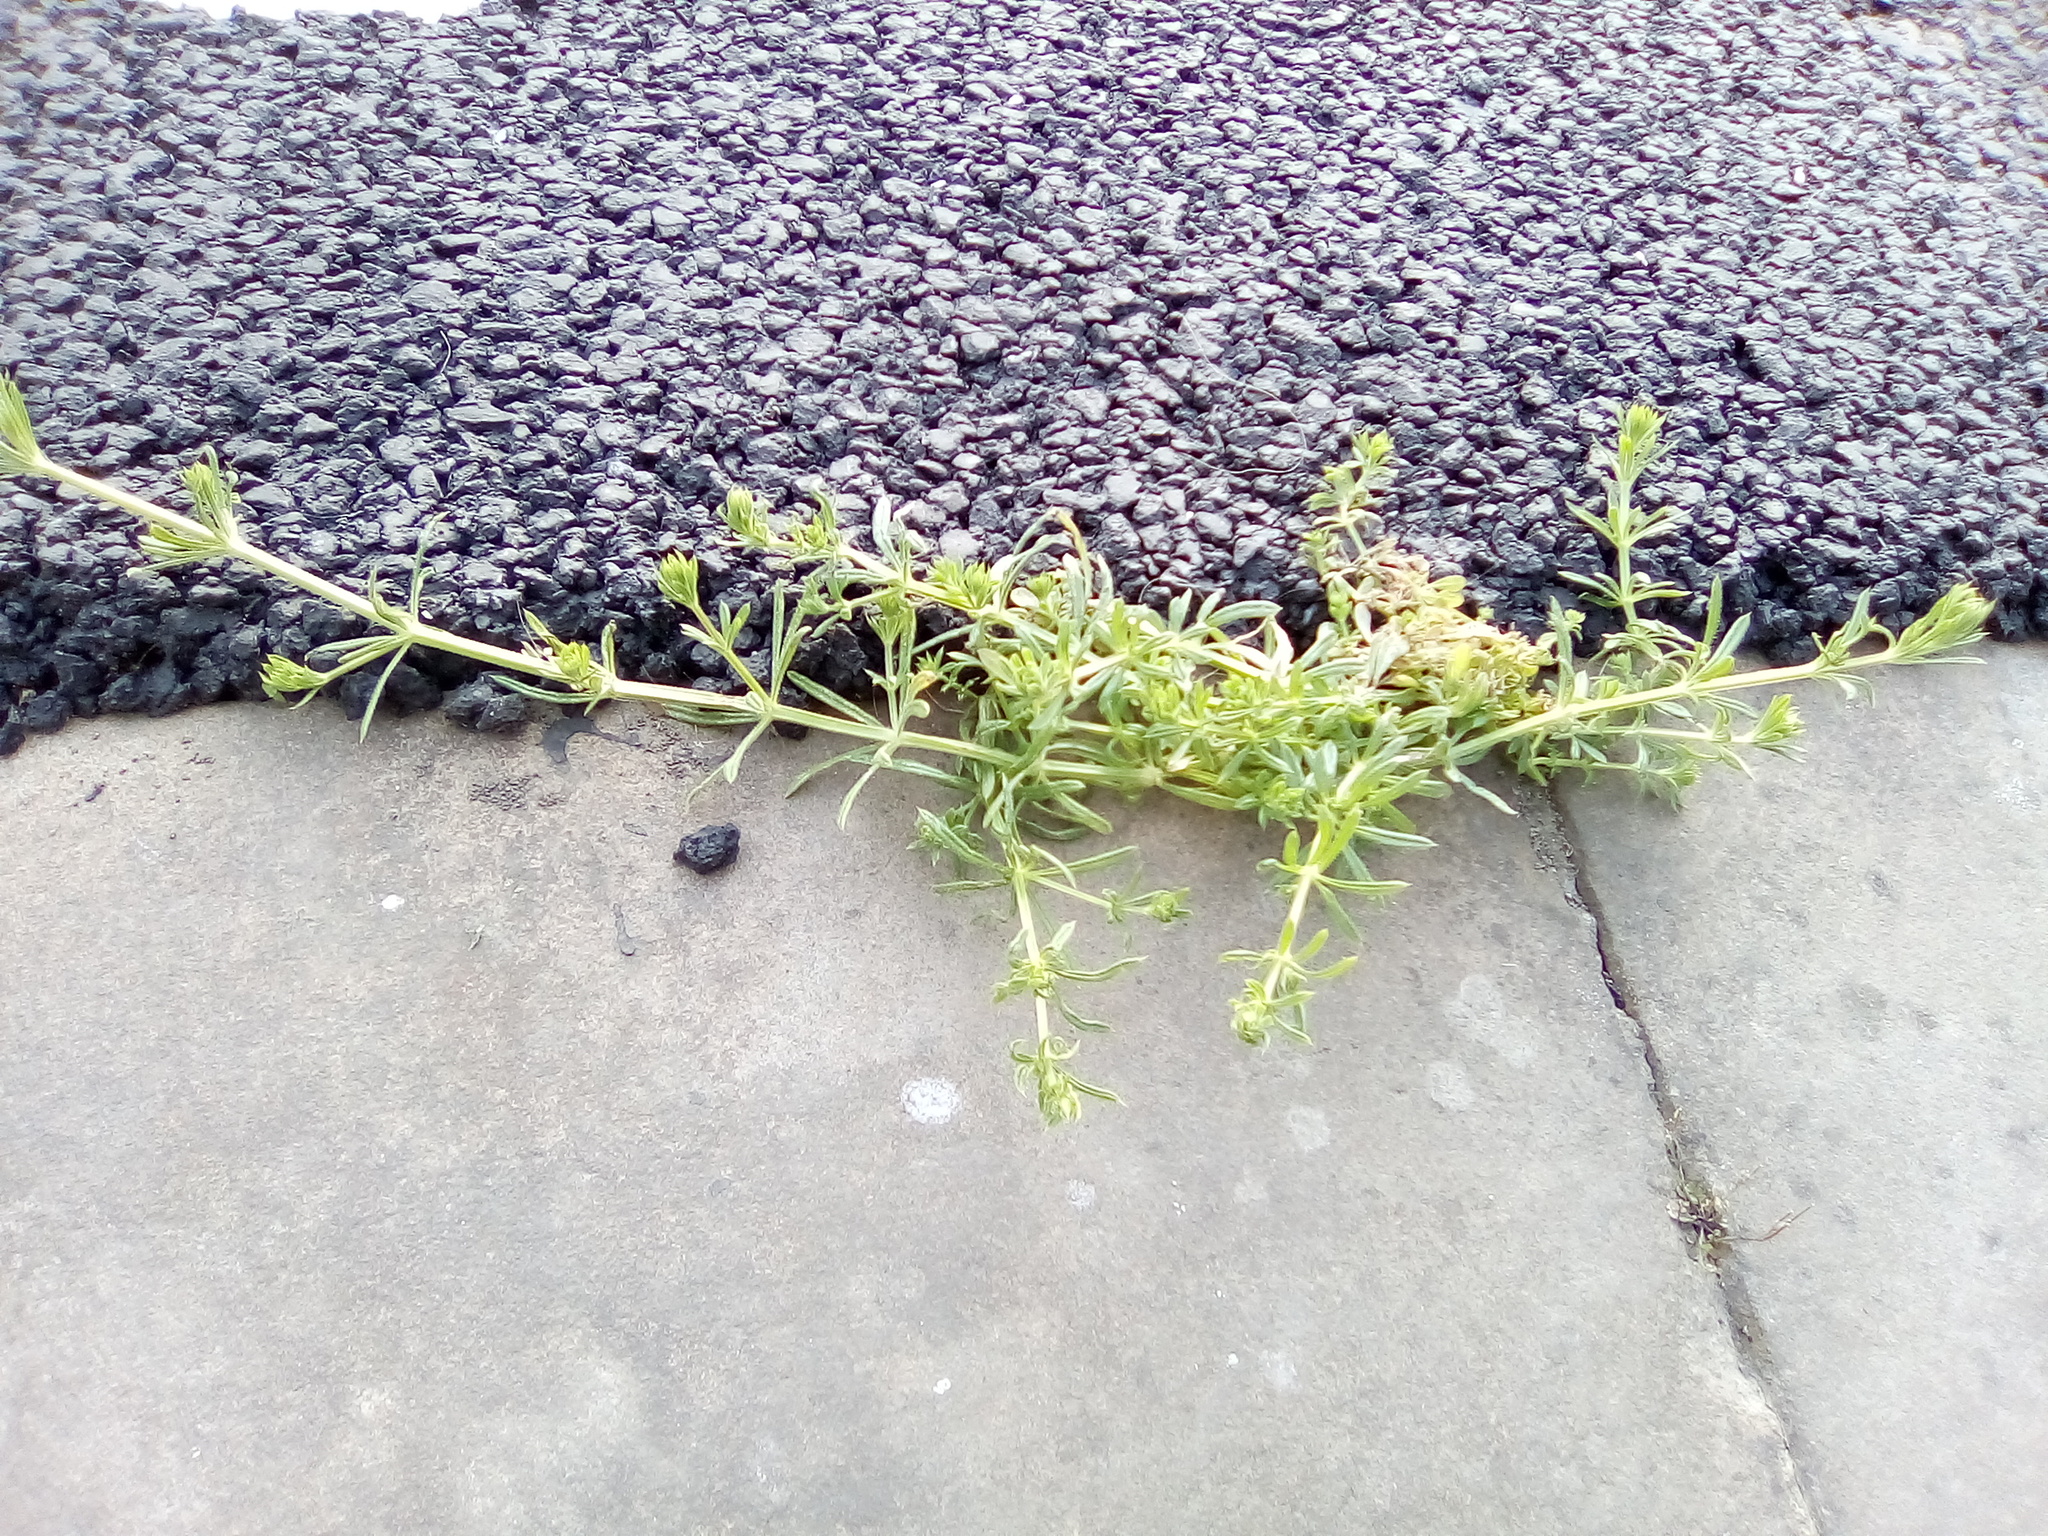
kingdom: Plantae
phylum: Tracheophyta
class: Magnoliopsida
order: Gentianales
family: Rubiaceae
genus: Galium
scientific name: Galium aparine
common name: Cleavers
